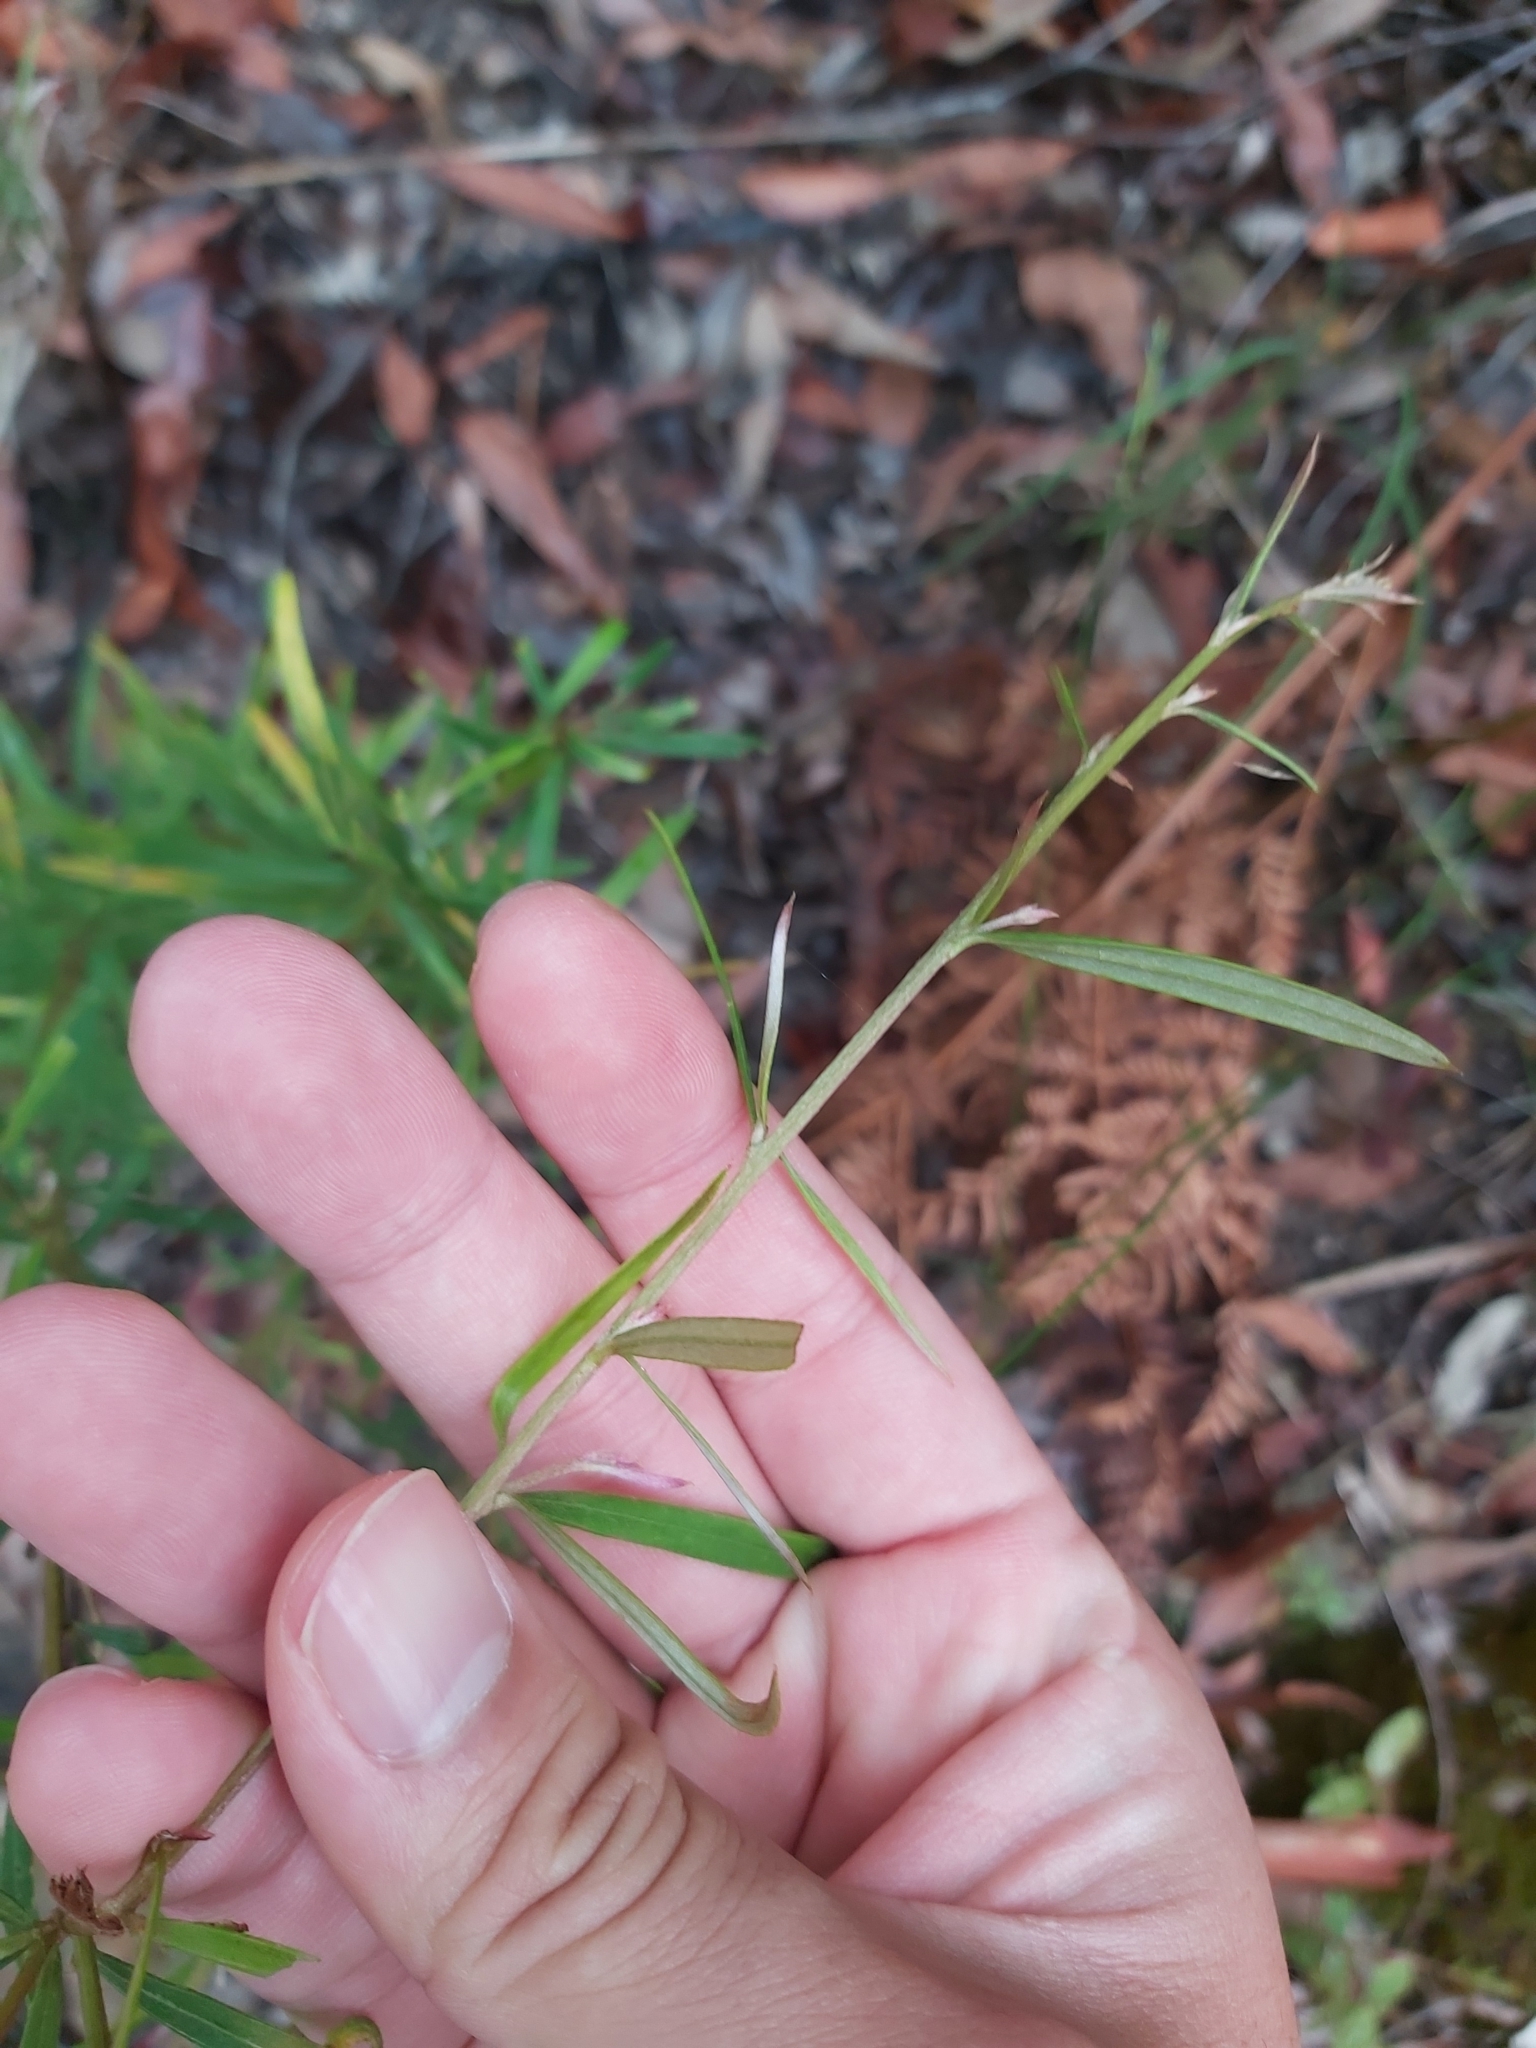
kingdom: Plantae
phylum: Tracheophyta
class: Magnoliopsida
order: Proteales
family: Proteaceae
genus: Grevillea
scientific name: Grevillea linearifolia
